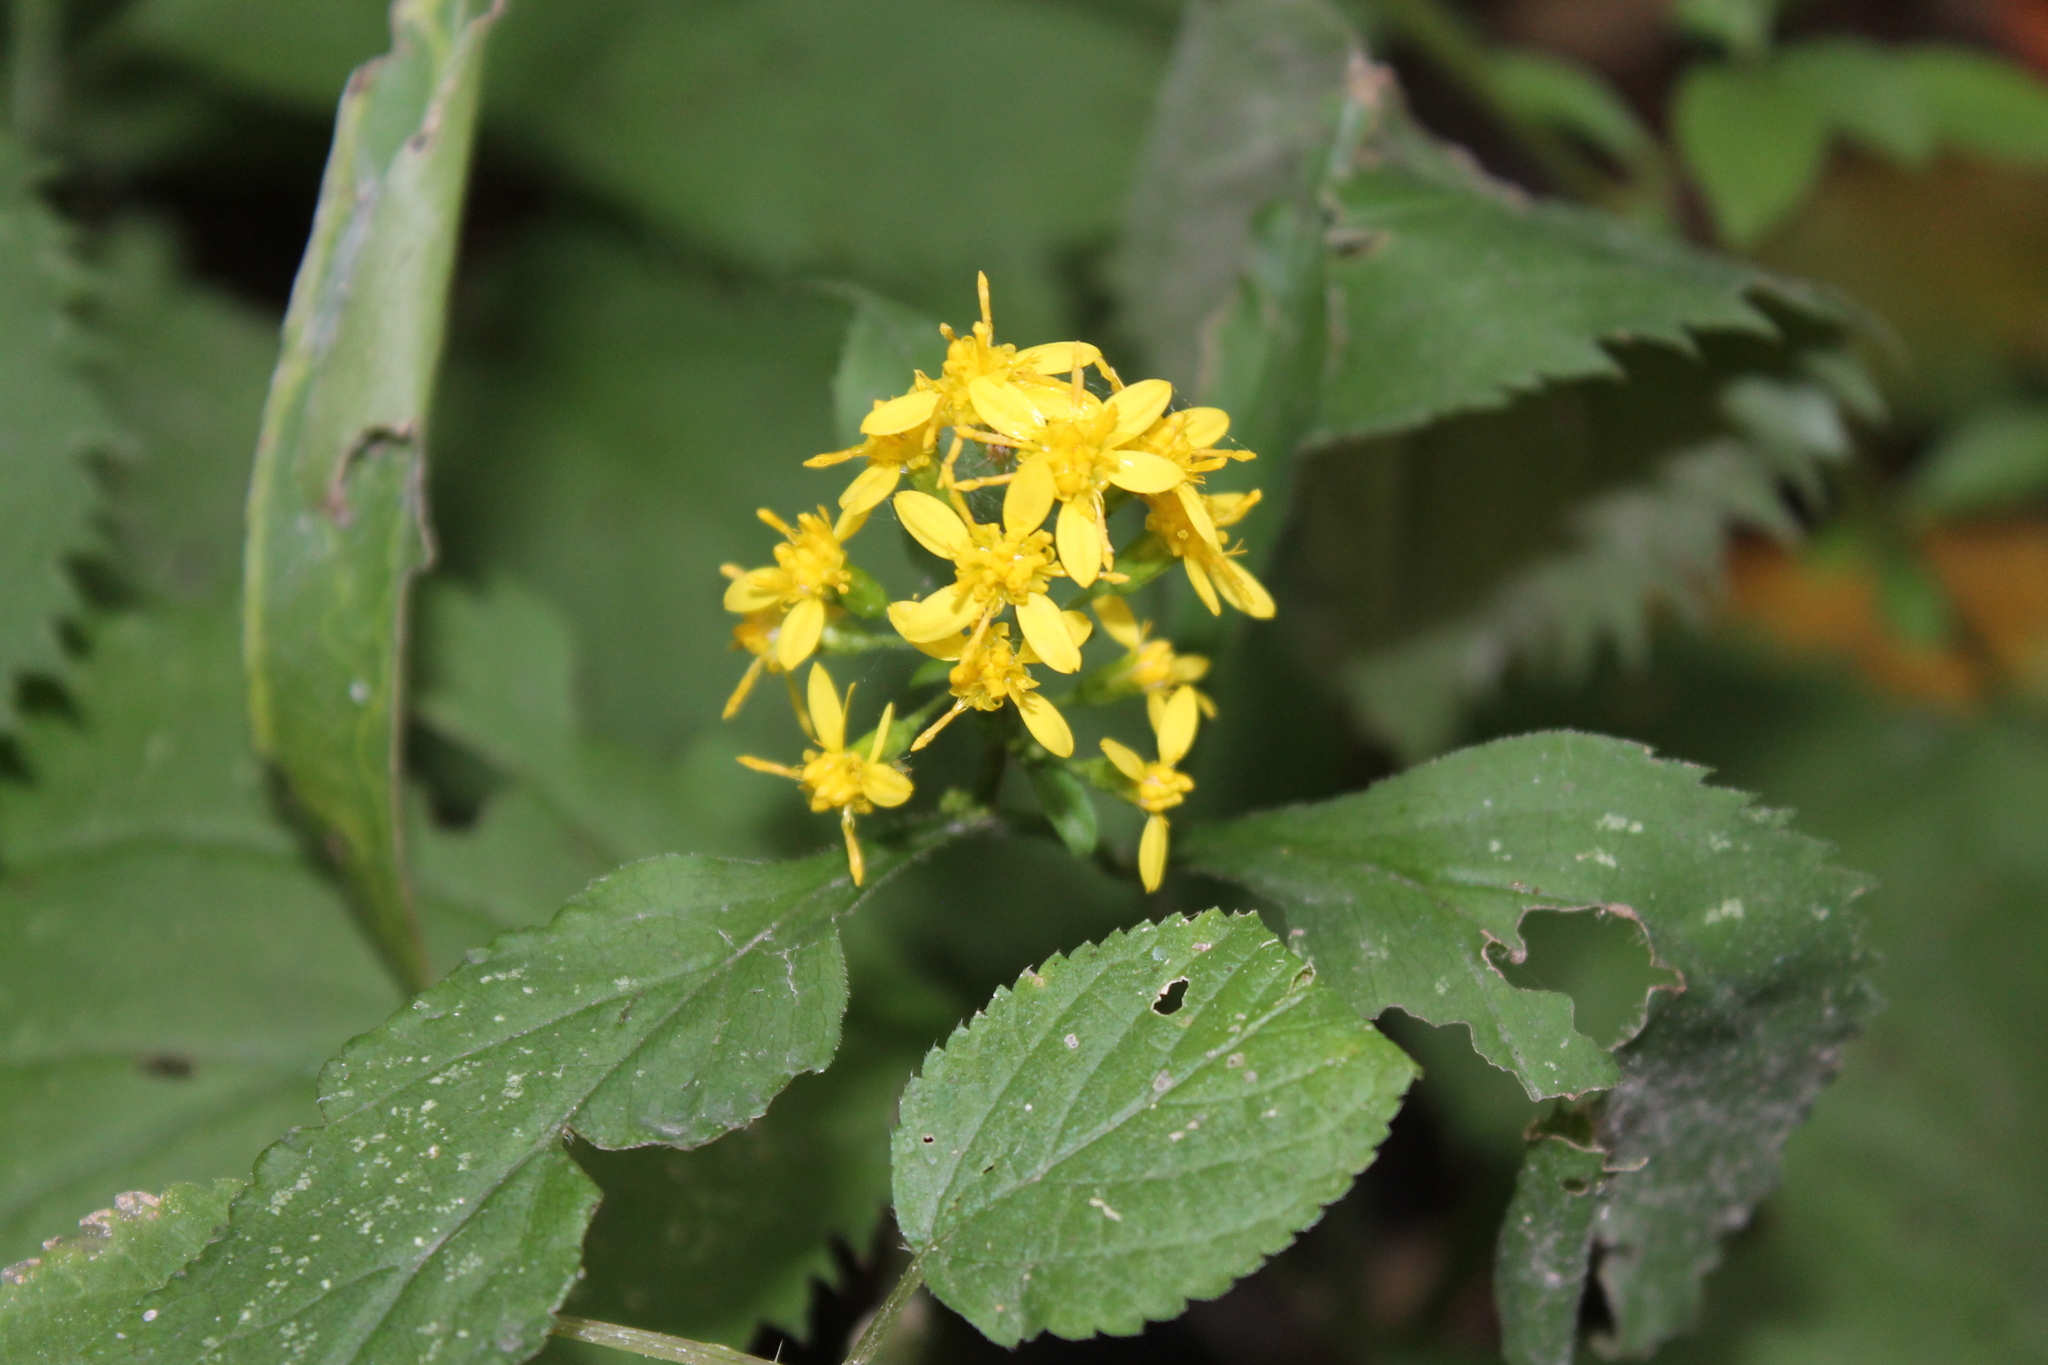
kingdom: Plantae
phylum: Tracheophyta
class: Magnoliopsida
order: Asterales
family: Asteraceae
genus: Solidago
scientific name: Solidago flexicaulis
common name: Zig-zag goldenrod
